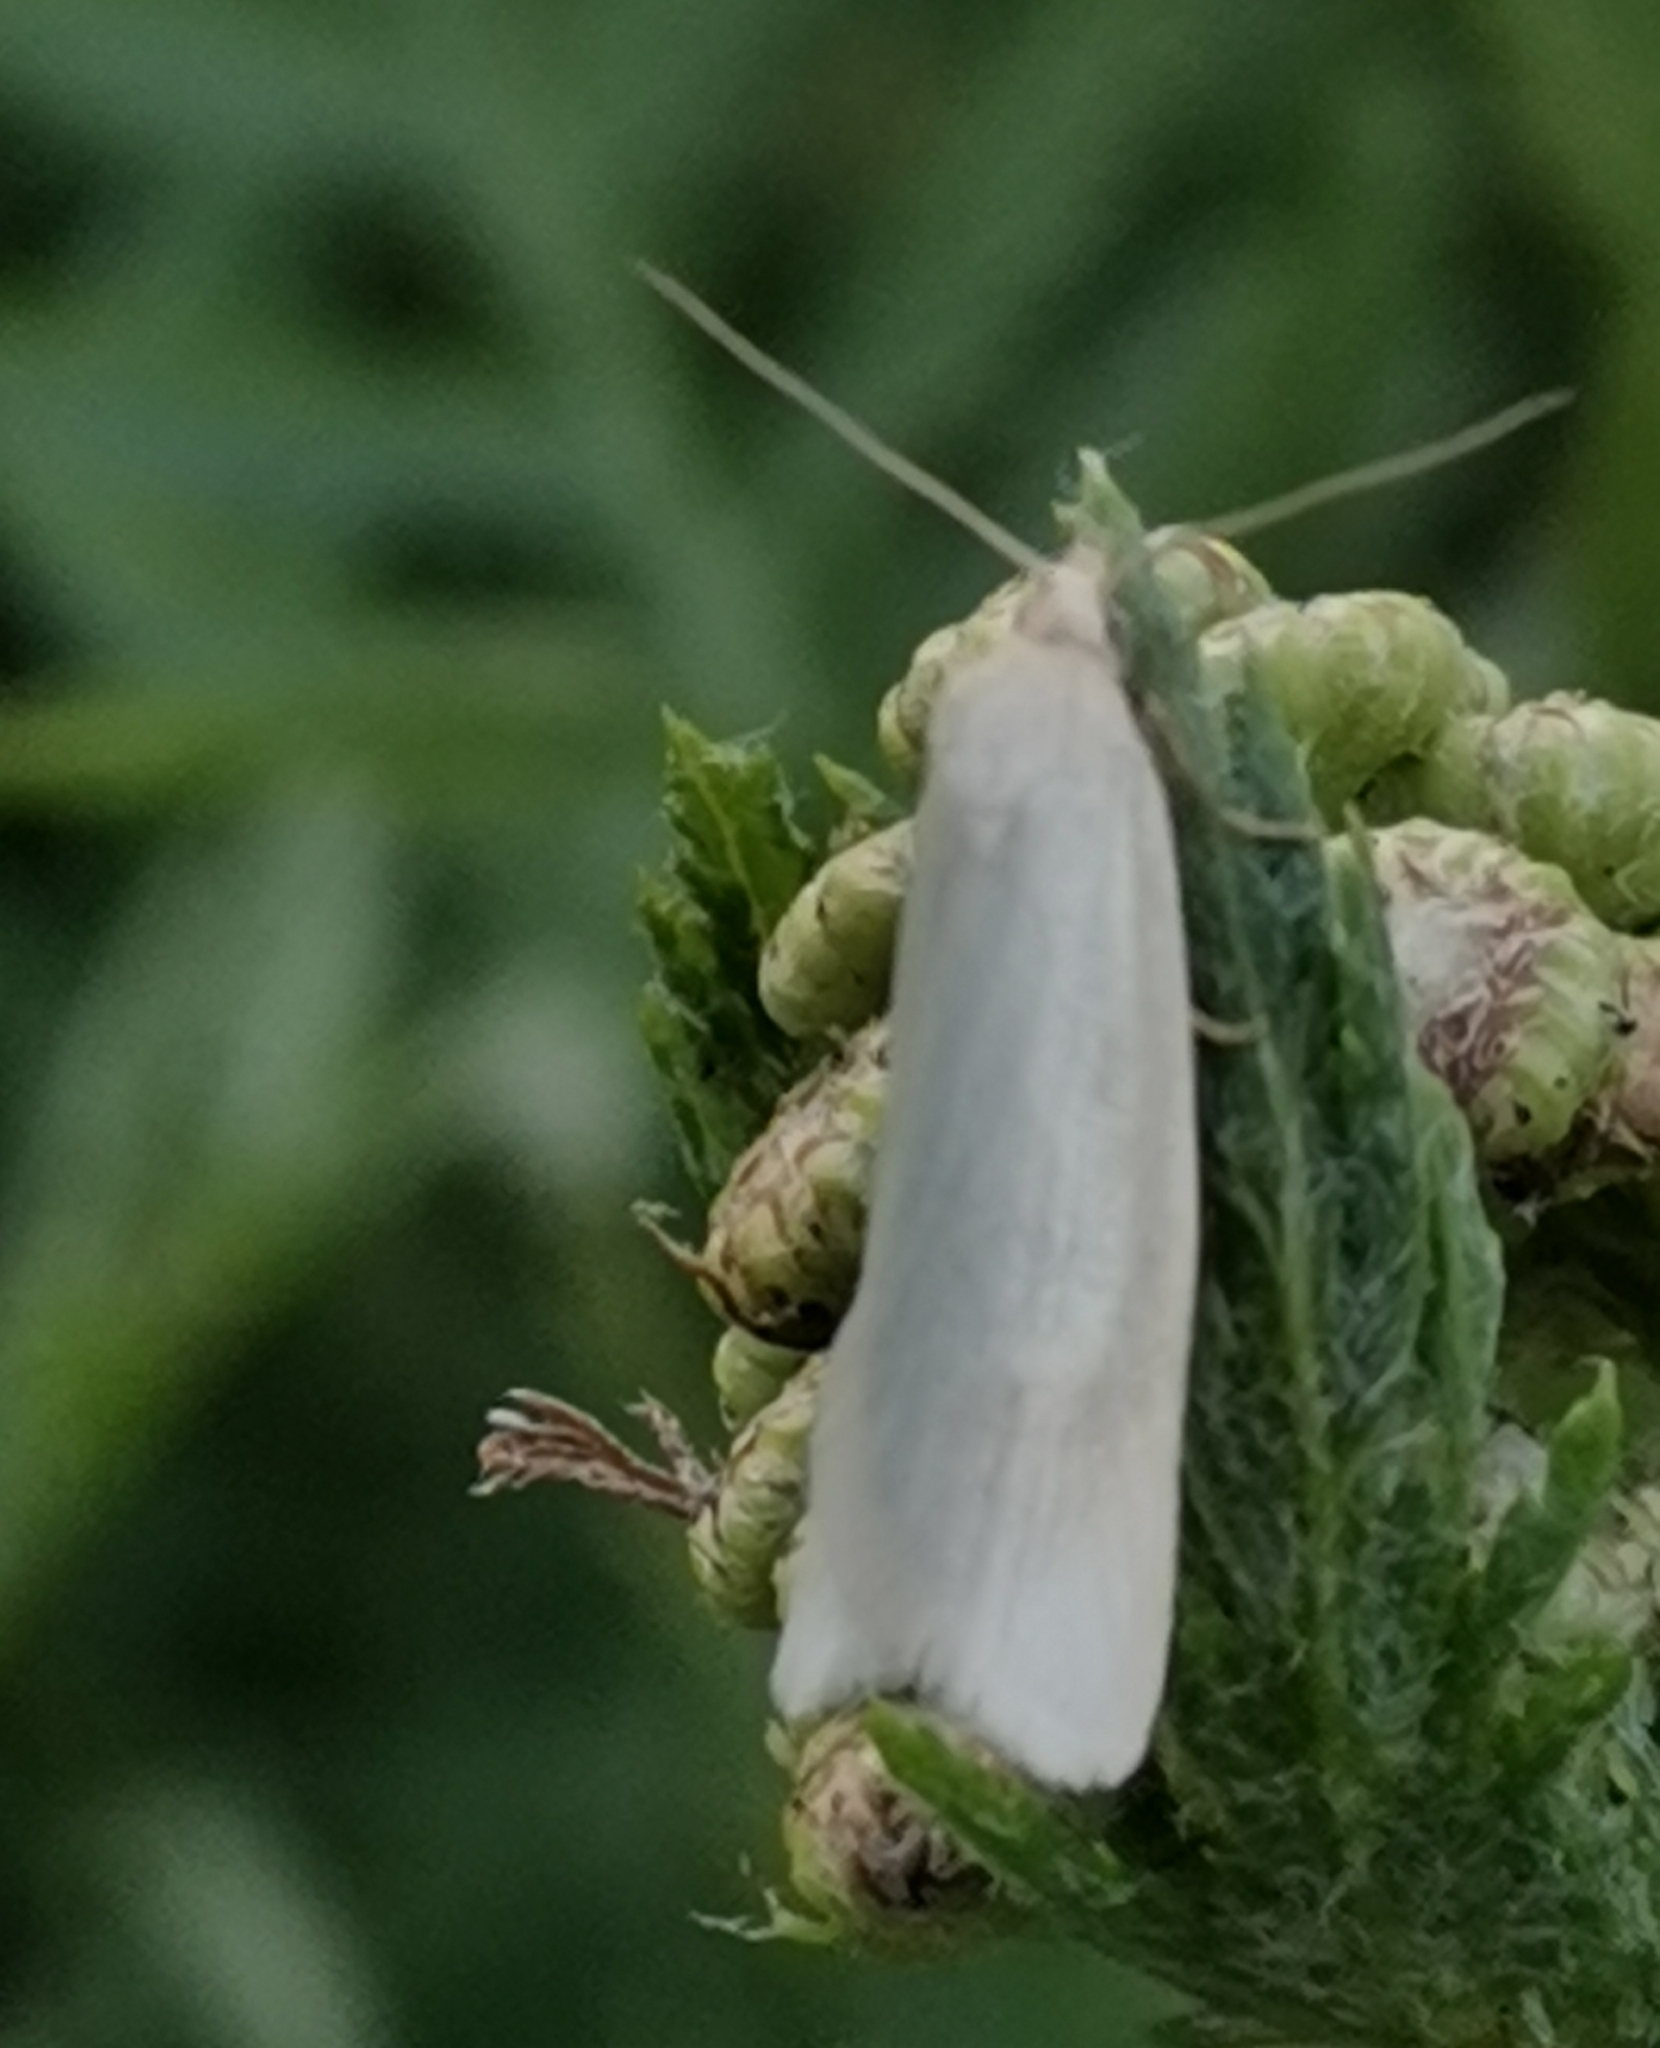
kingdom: Animalia
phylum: Arthropoda
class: Insecta
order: Lepidoptera
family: Tortricidae
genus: Eana
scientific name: Eana argentana
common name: Silver shade
